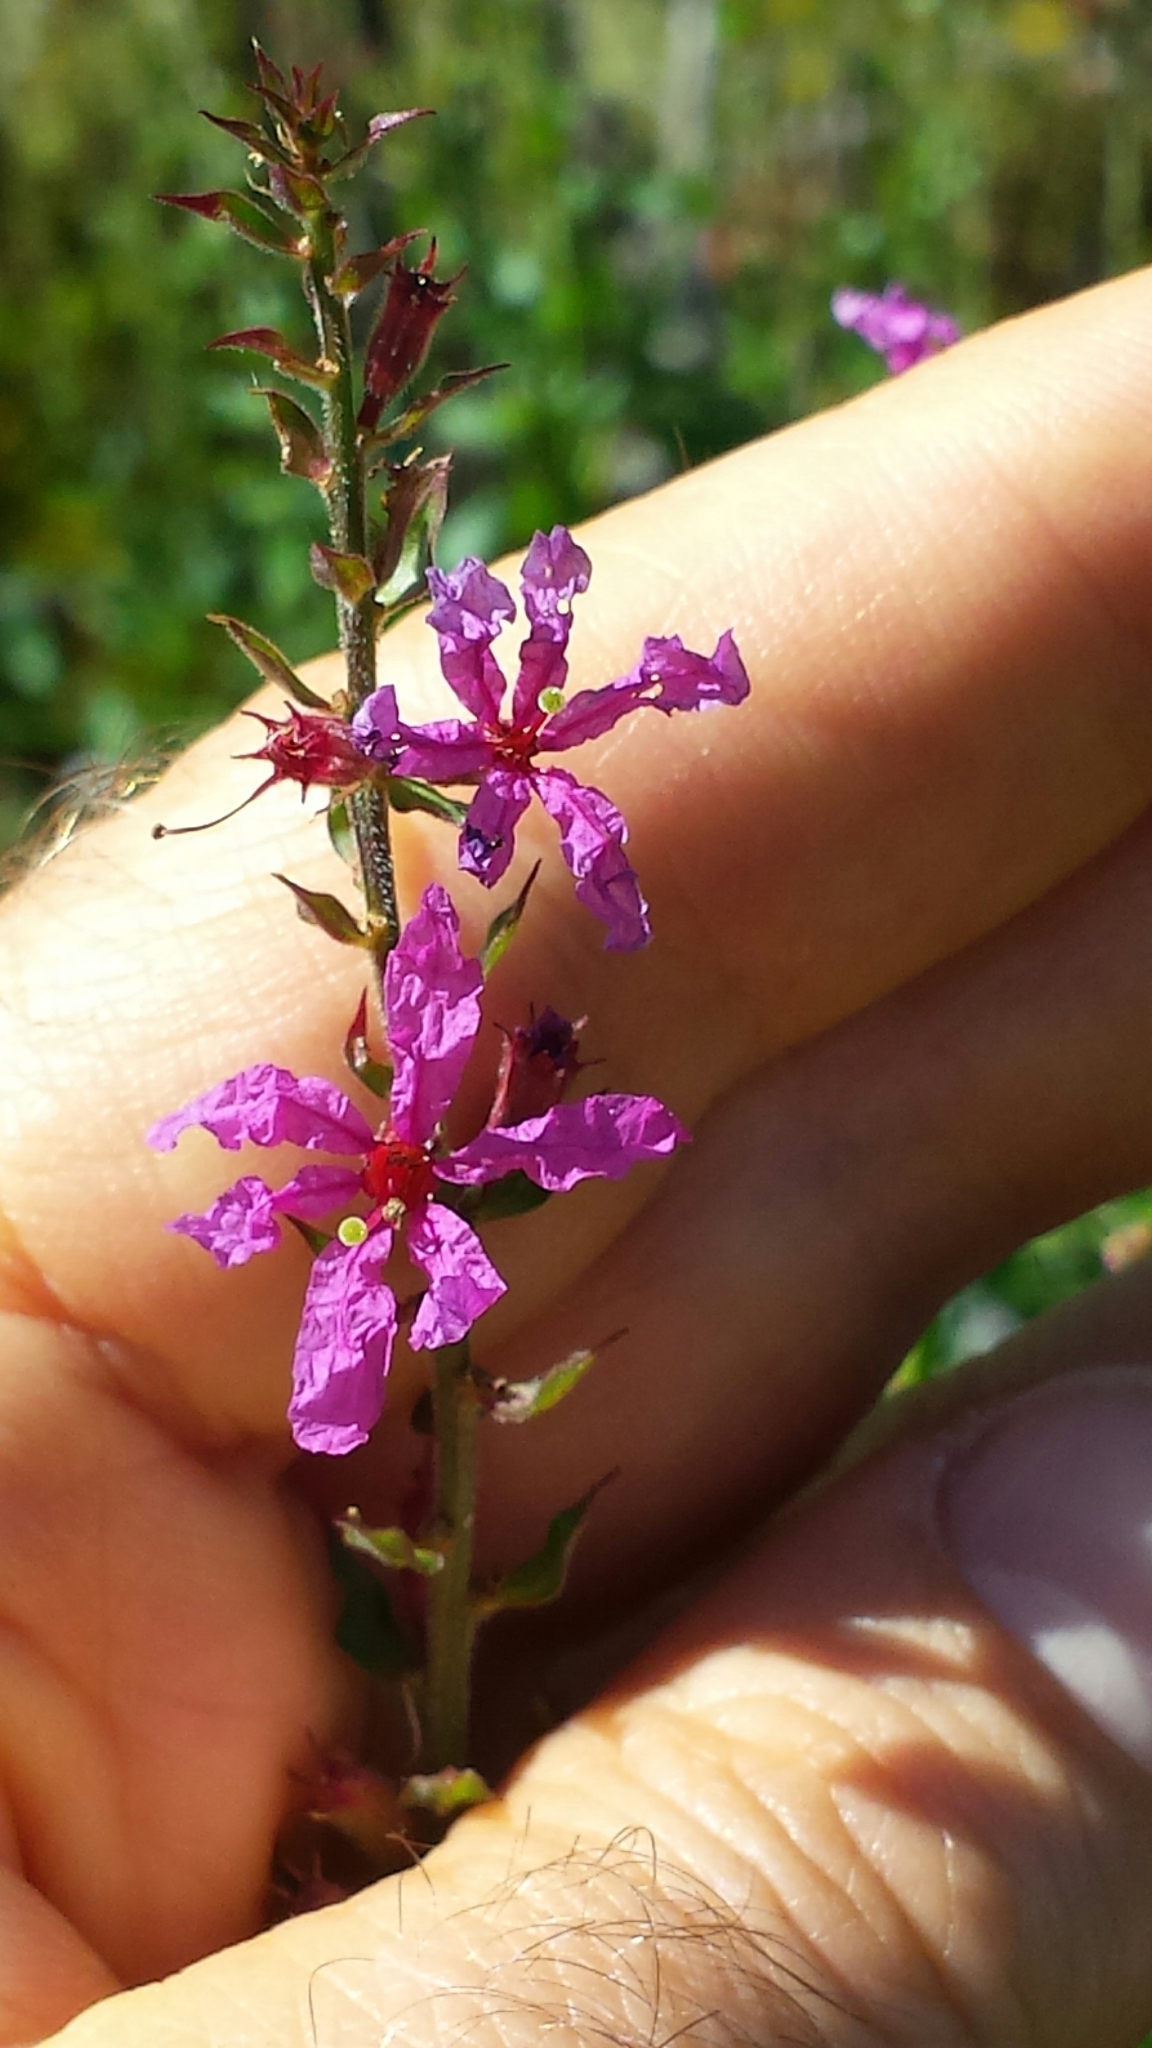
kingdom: Plantae
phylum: Tracheophyta
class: Magnoliopsida
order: Myrtales
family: Lythraceae
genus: Lythrum
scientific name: Lythrum salicaria
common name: Purple loosestrife
